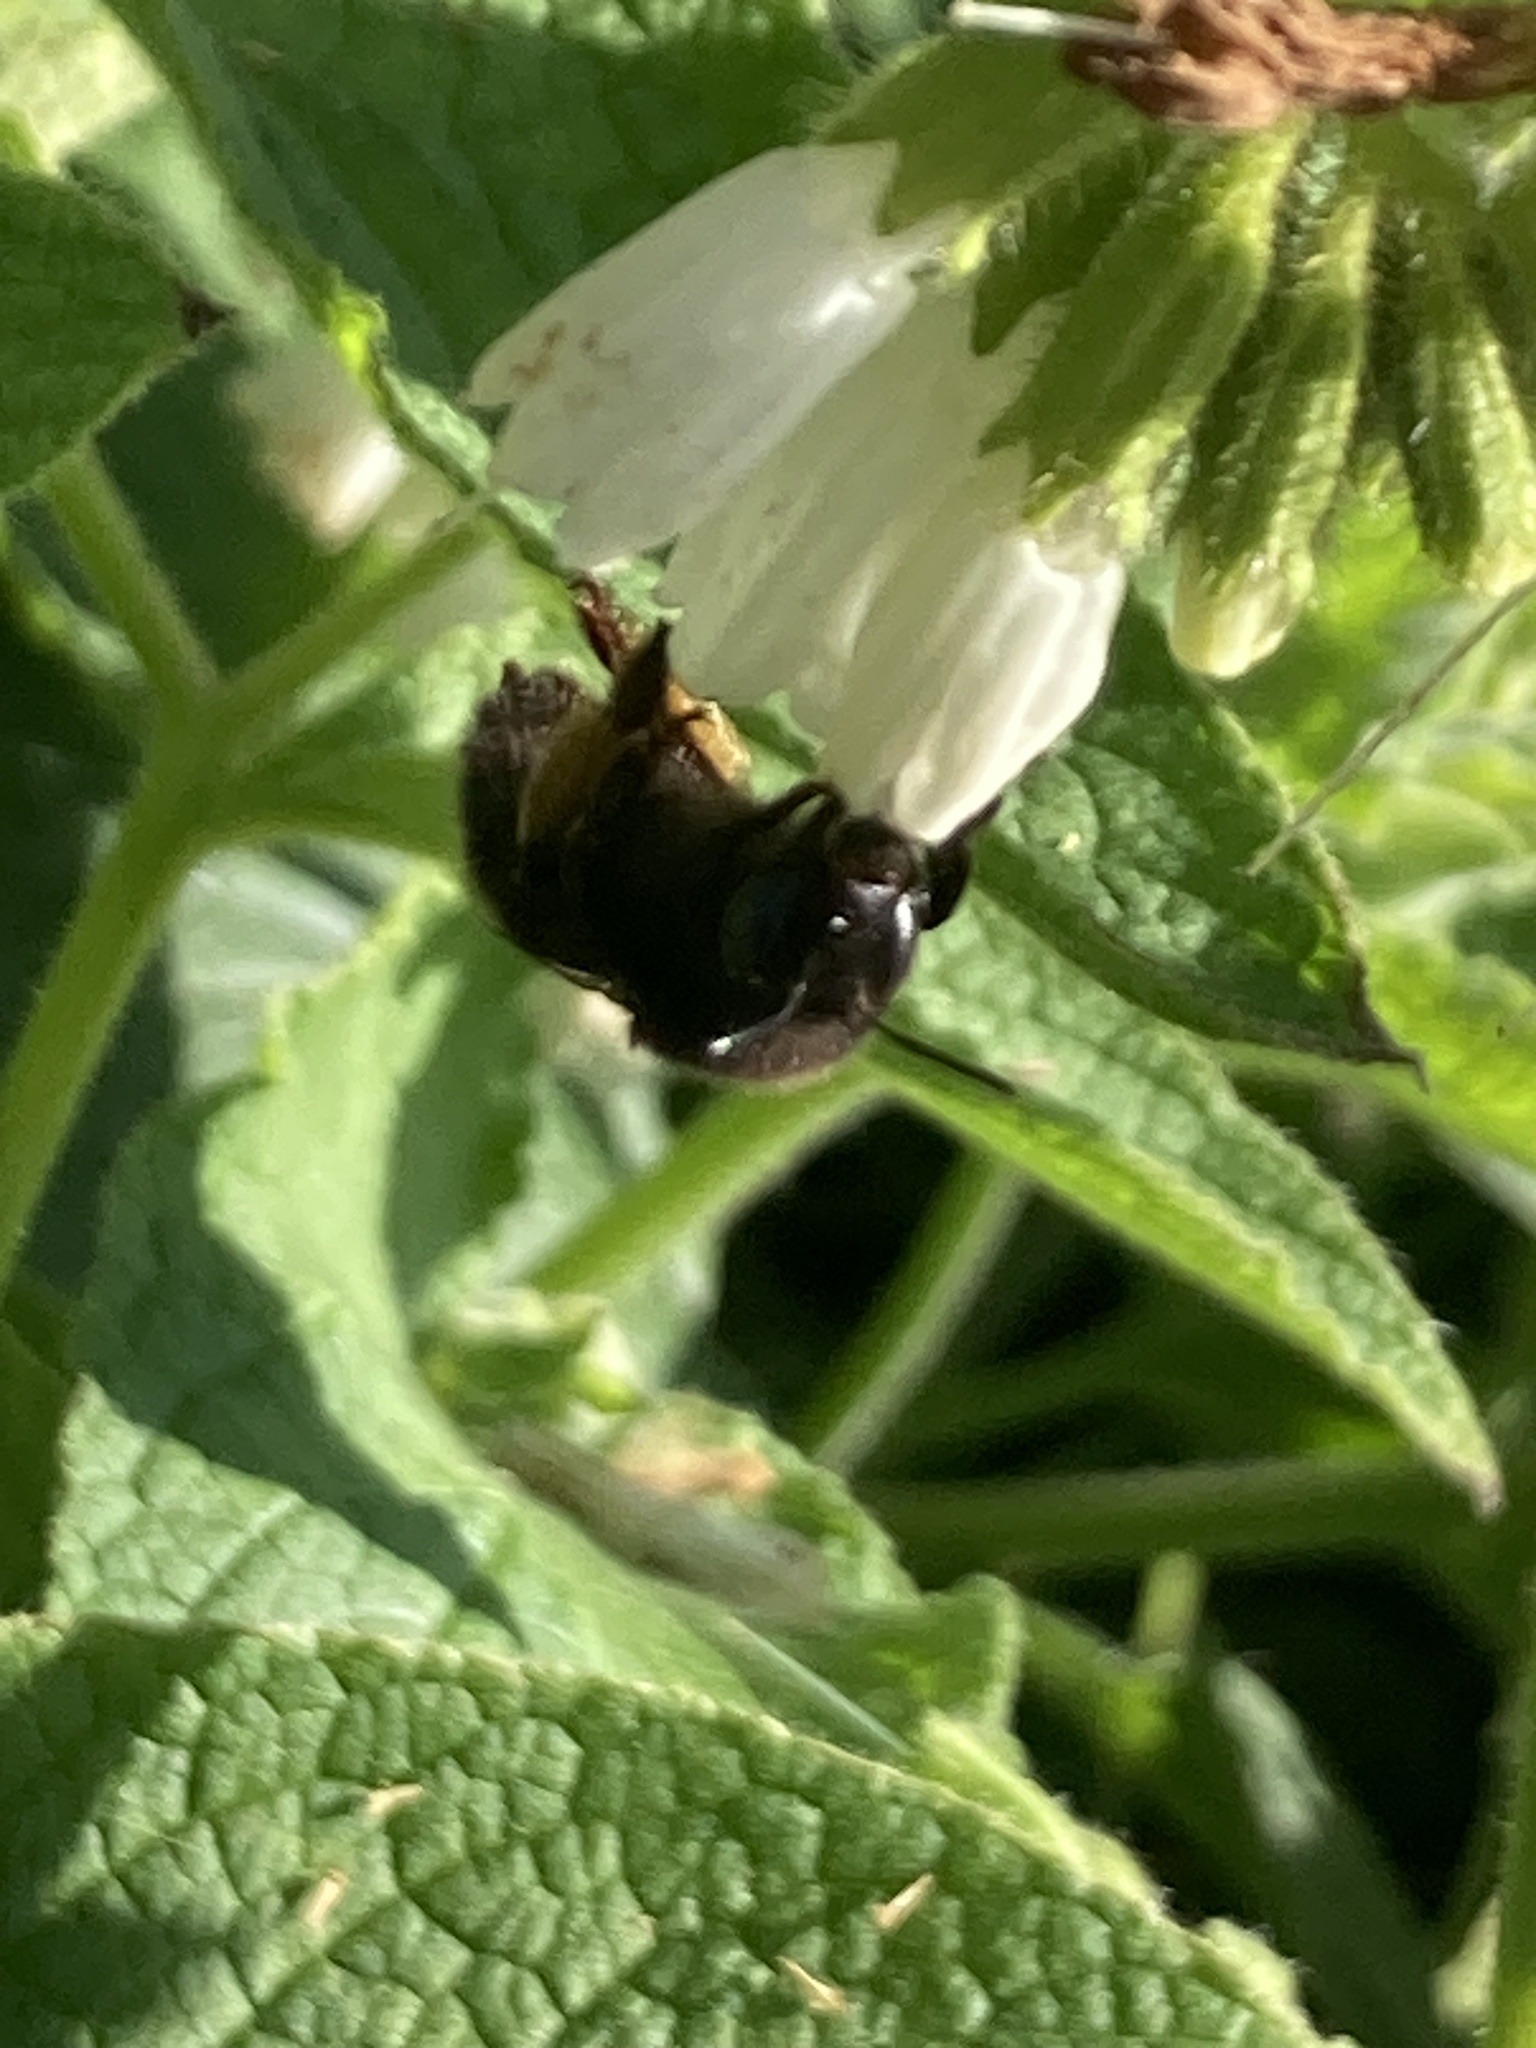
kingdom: Animalia
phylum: Arthropoda
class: Insecta
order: Hymenoptera
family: Apidae
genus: Anthophora
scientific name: Anthophora plumipes
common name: Hairy-footed flower bee
